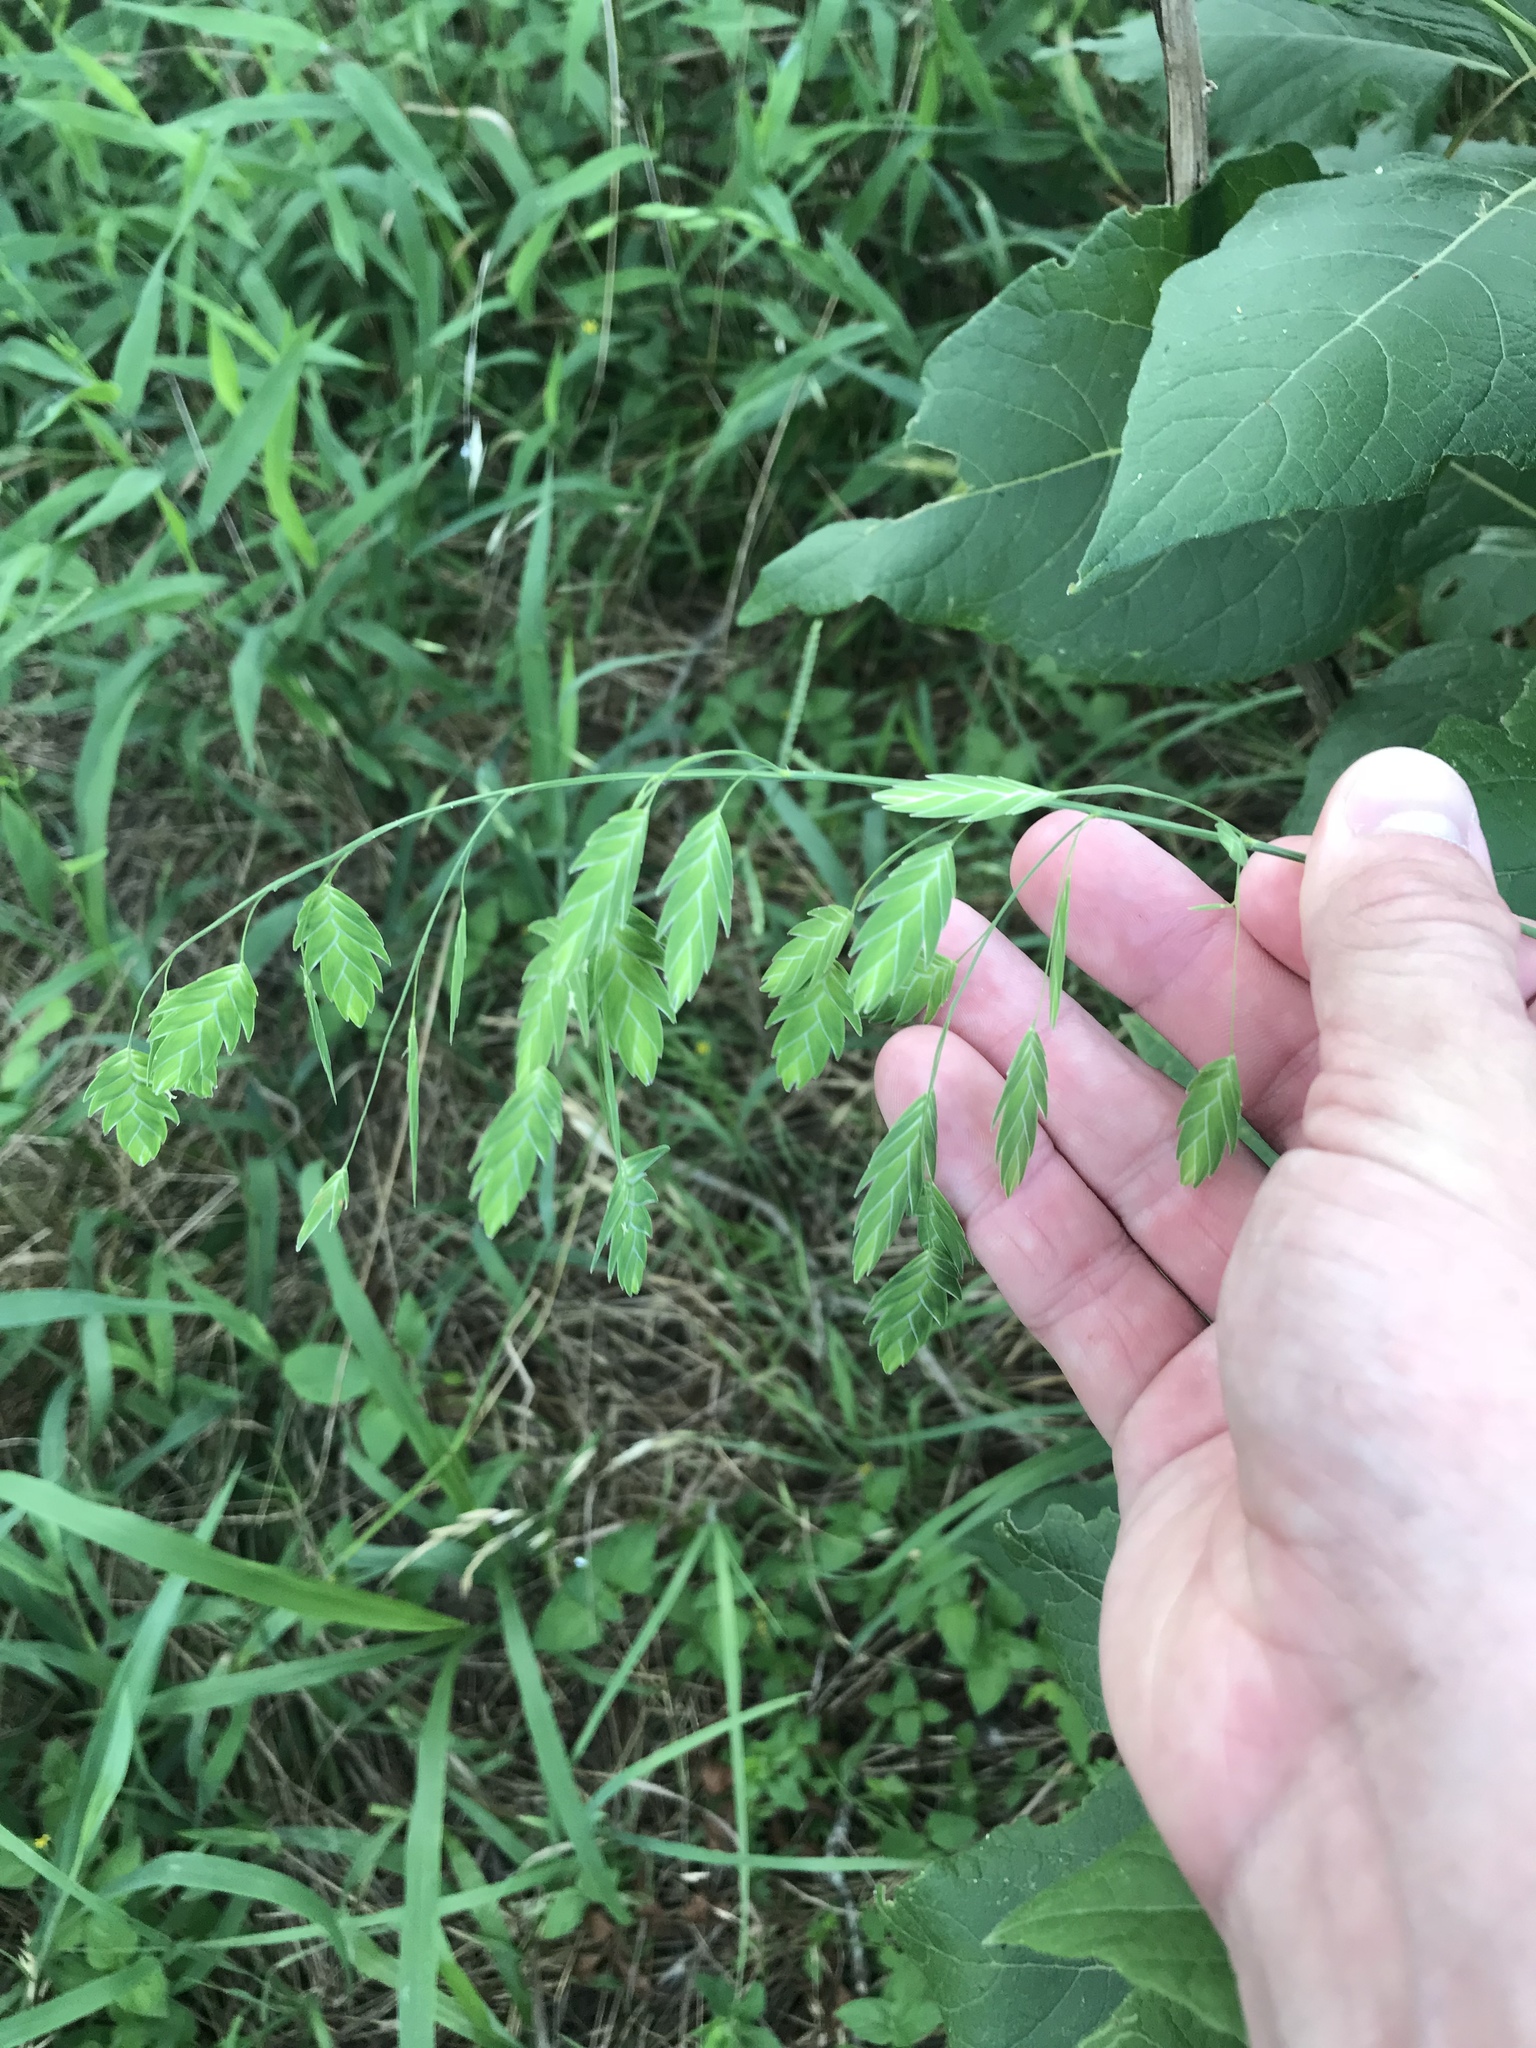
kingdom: Plantae
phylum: Tracheophyta
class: Liliopsida
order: Poales
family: Poaceae
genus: Chasmanthium
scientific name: Chasmanthium latifolium
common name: Broad-leaved chasmanthium
